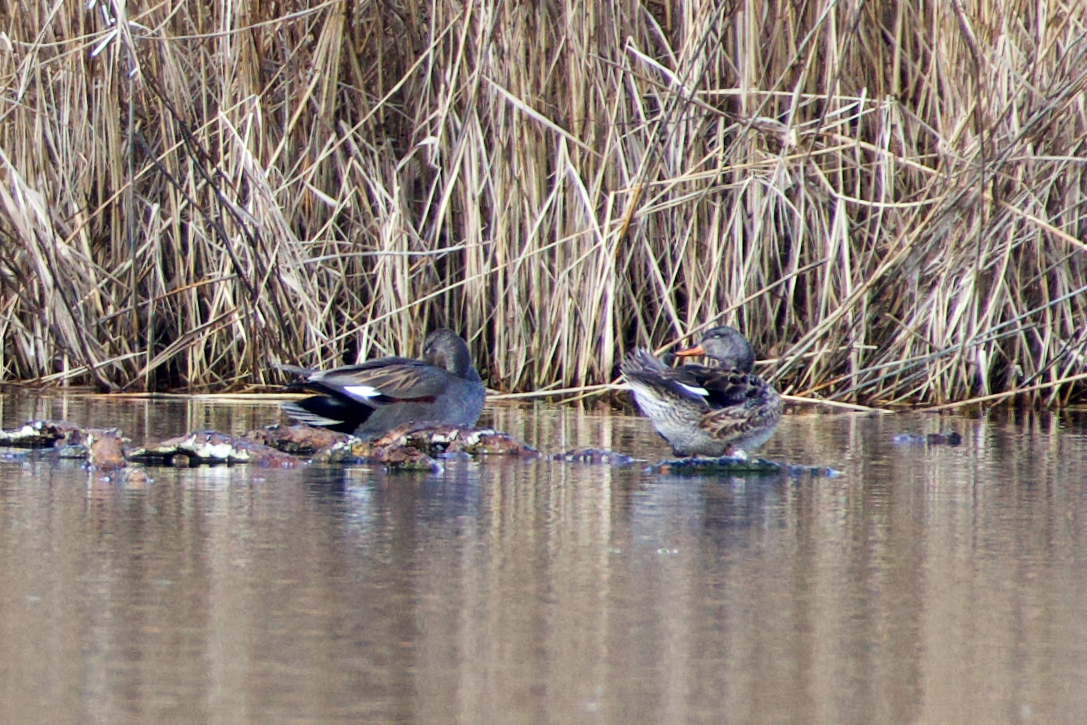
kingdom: Animalia
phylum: Chordata
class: Aves
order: Anseriformes
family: Anatidae
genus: Mareca
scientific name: Mareca strepera
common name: Gadwall
